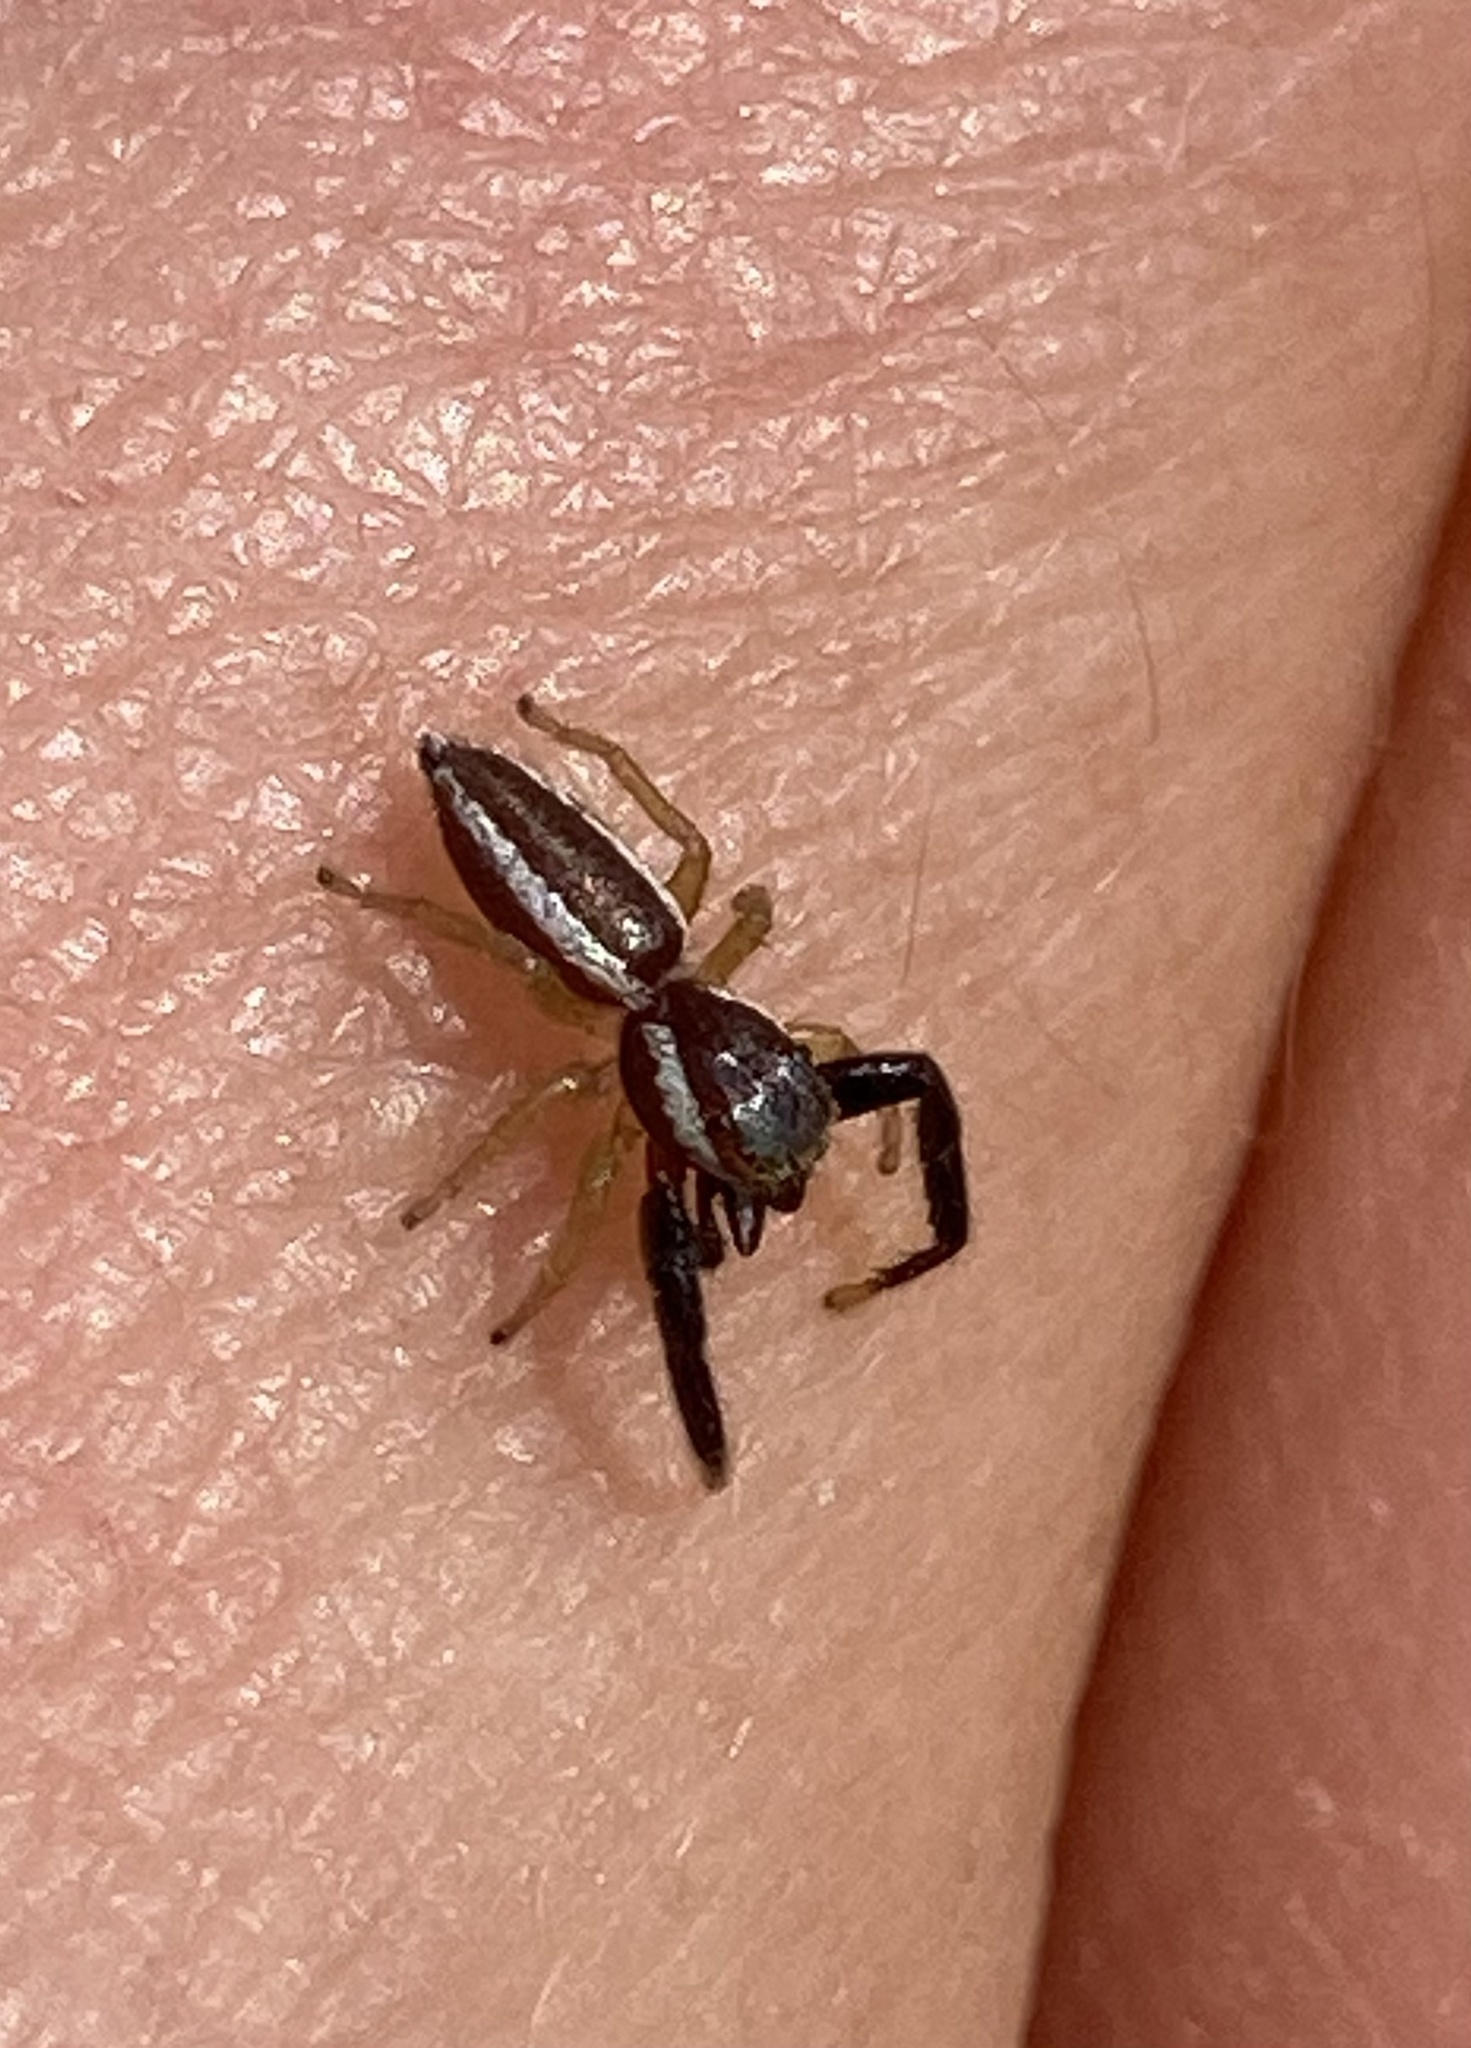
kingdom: Animalia
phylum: Arthropoda
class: Arachnida
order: Araneae
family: Salticidae
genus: Hentzia
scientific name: Hentzia palmarum
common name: Common hentz jumping spider
